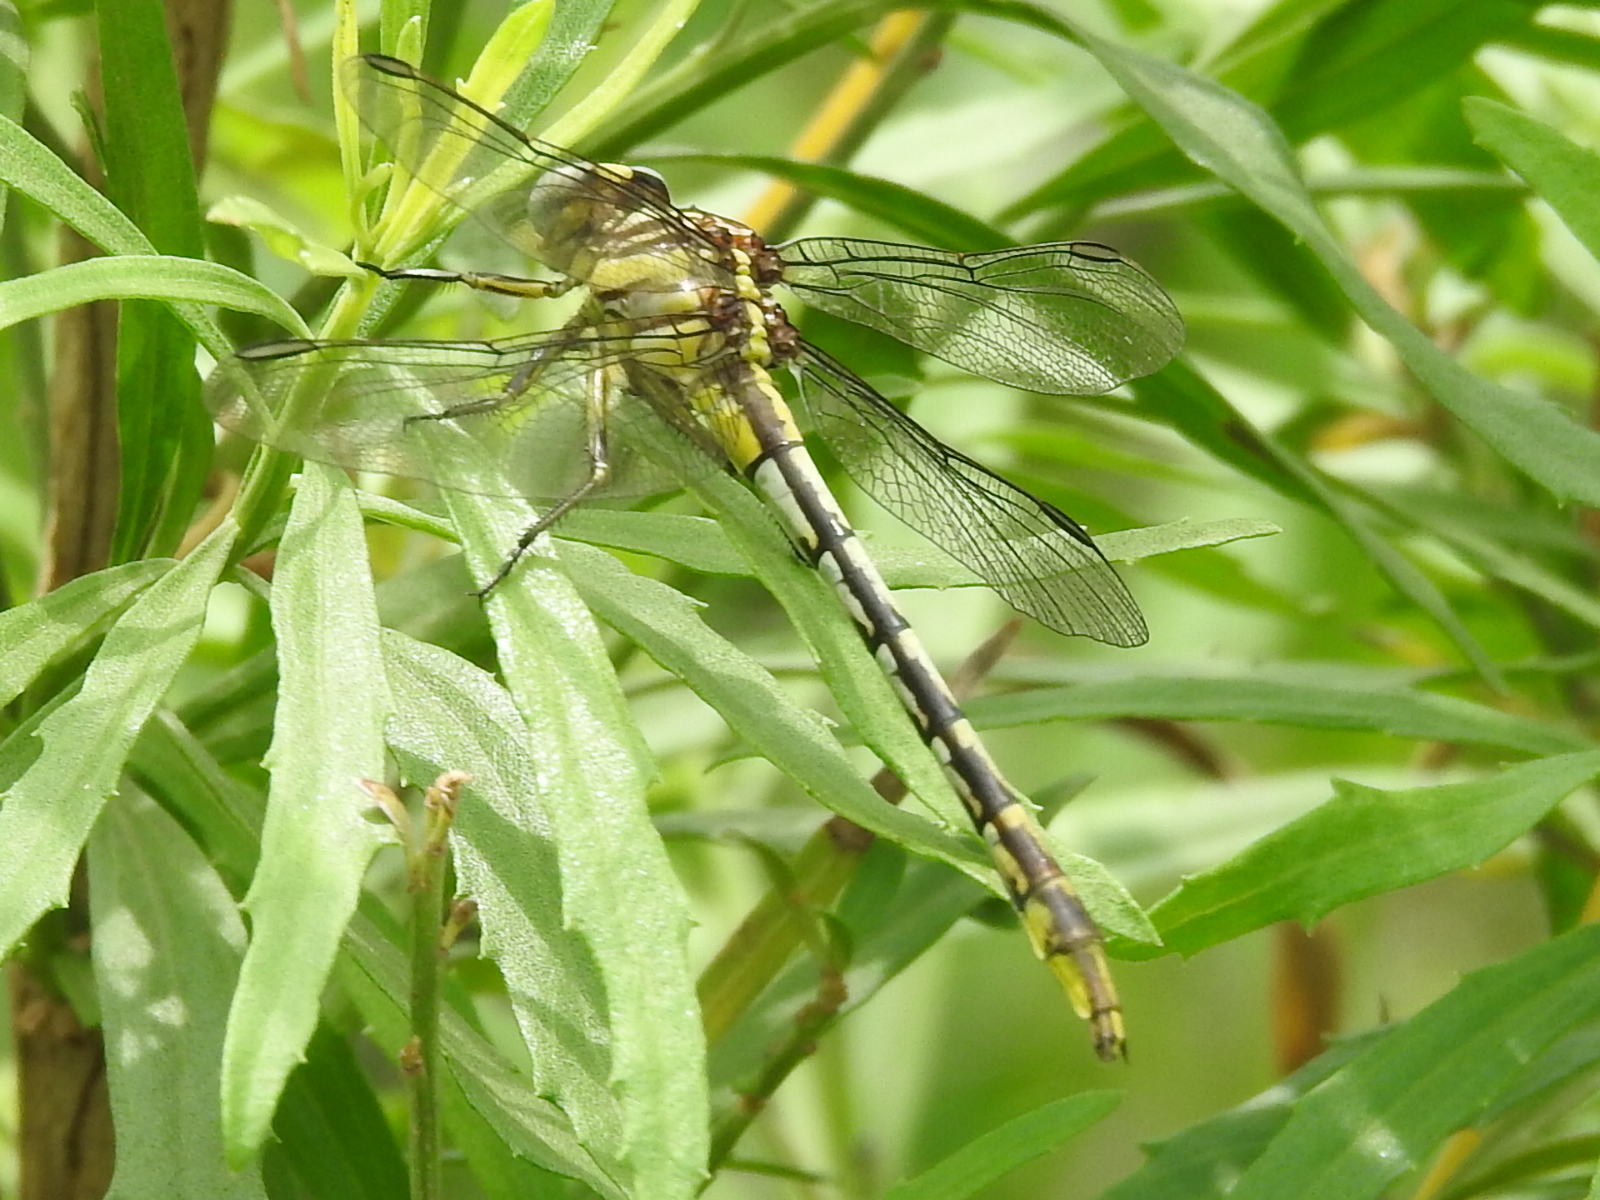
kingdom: Animalia
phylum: Arthropoda
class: Insecta
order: Odonata
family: Gomphidae
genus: Phanogomphus
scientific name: Phanogomphus militaris
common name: Sulphur-tipped clubtail
